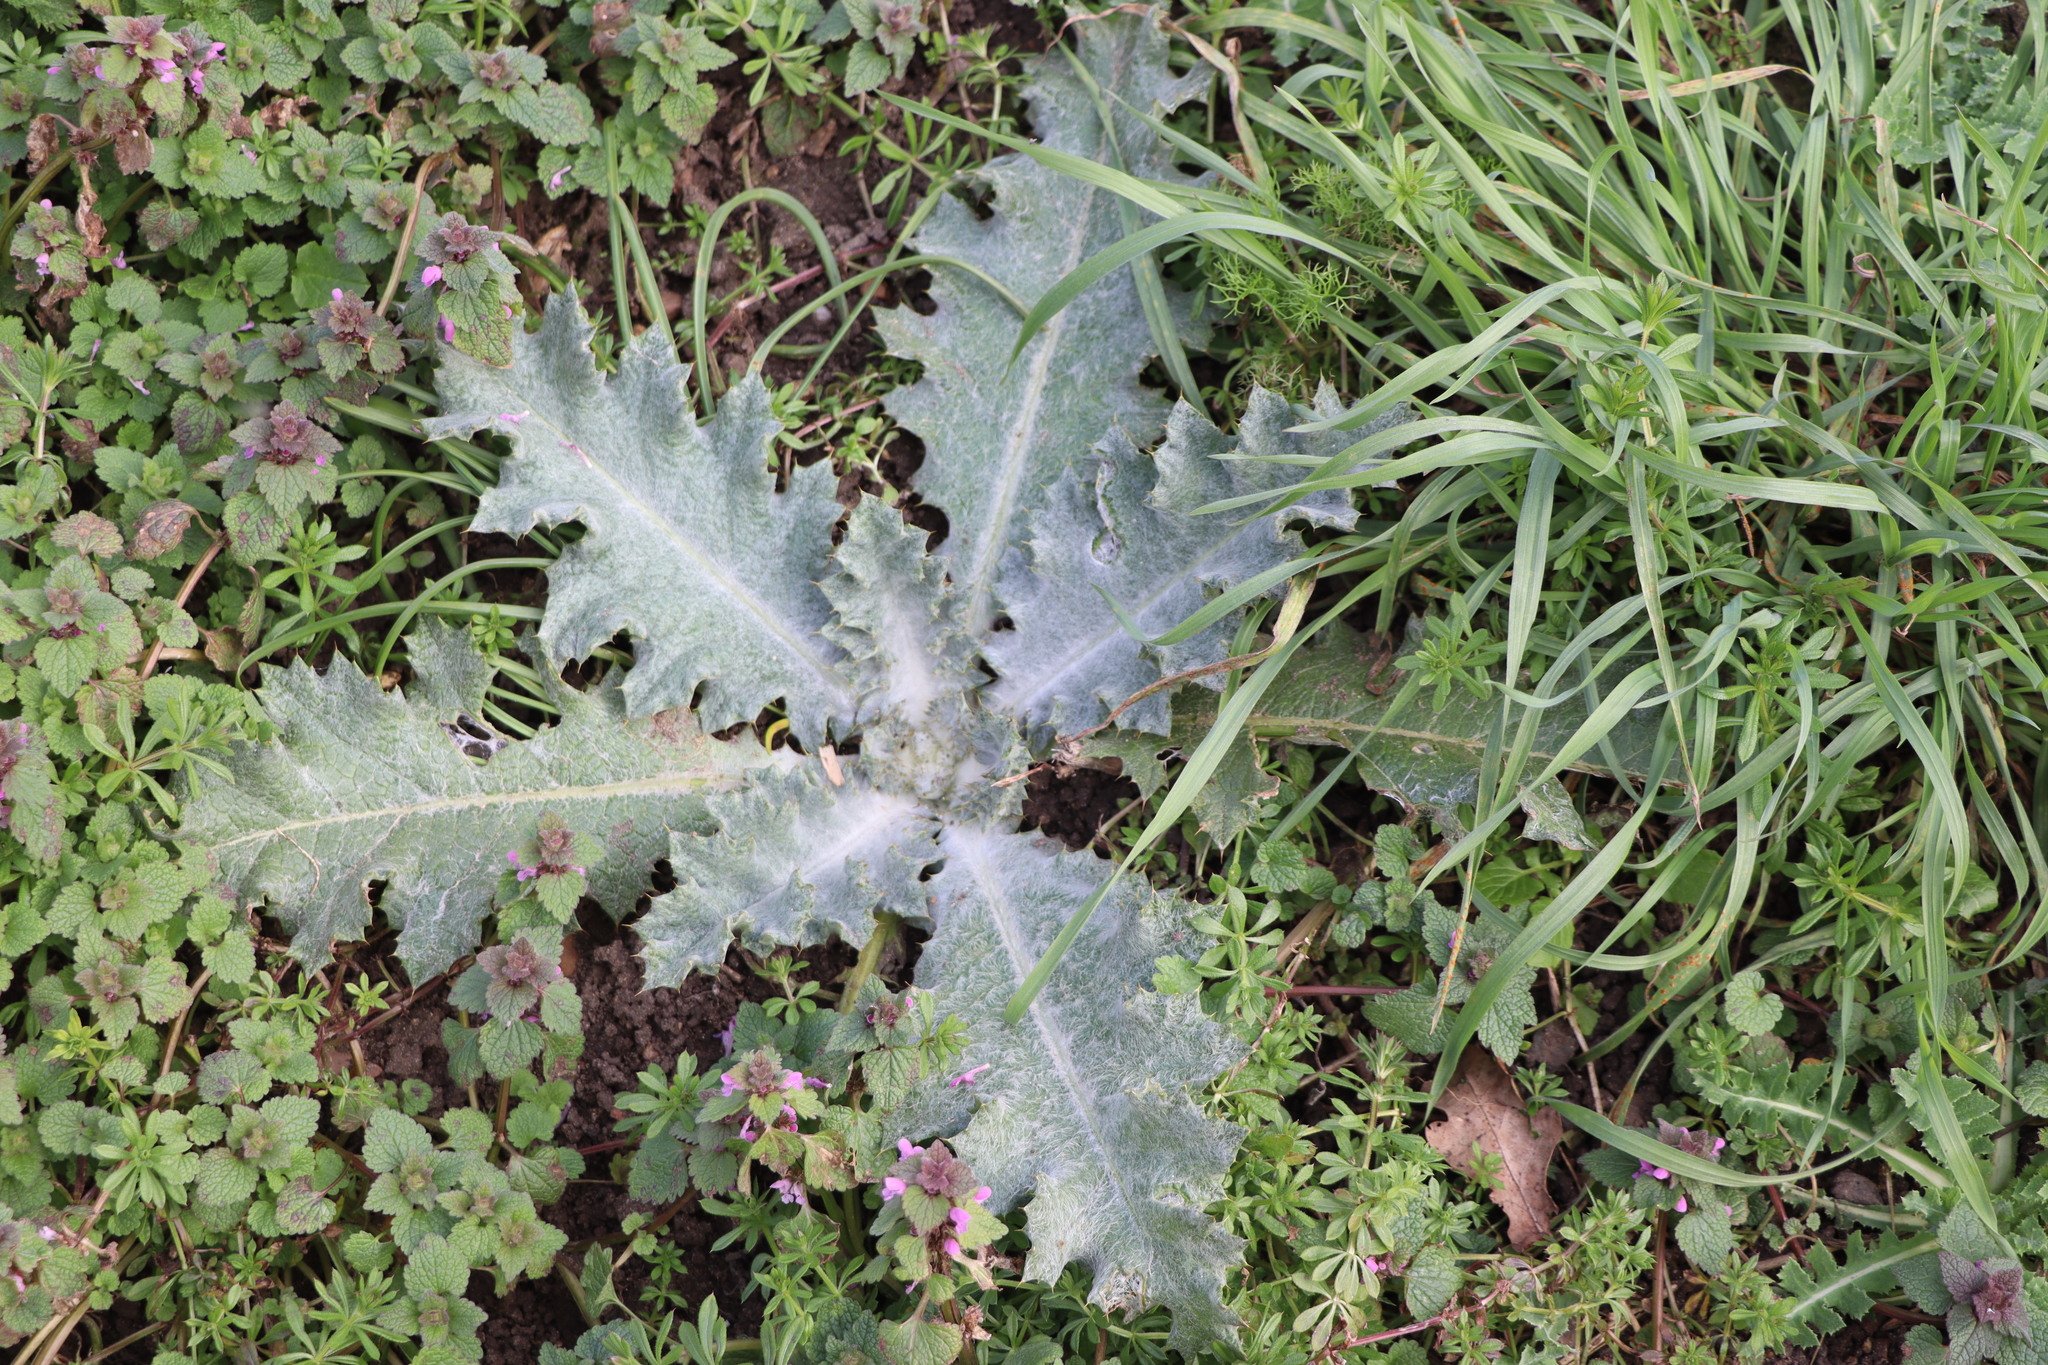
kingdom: Plantae
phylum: Tracheophyta
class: Magnoliopsida
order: Asterales
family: Asteraceae
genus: Onopordum
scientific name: Onopordum acanthium
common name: Scotch thistle
